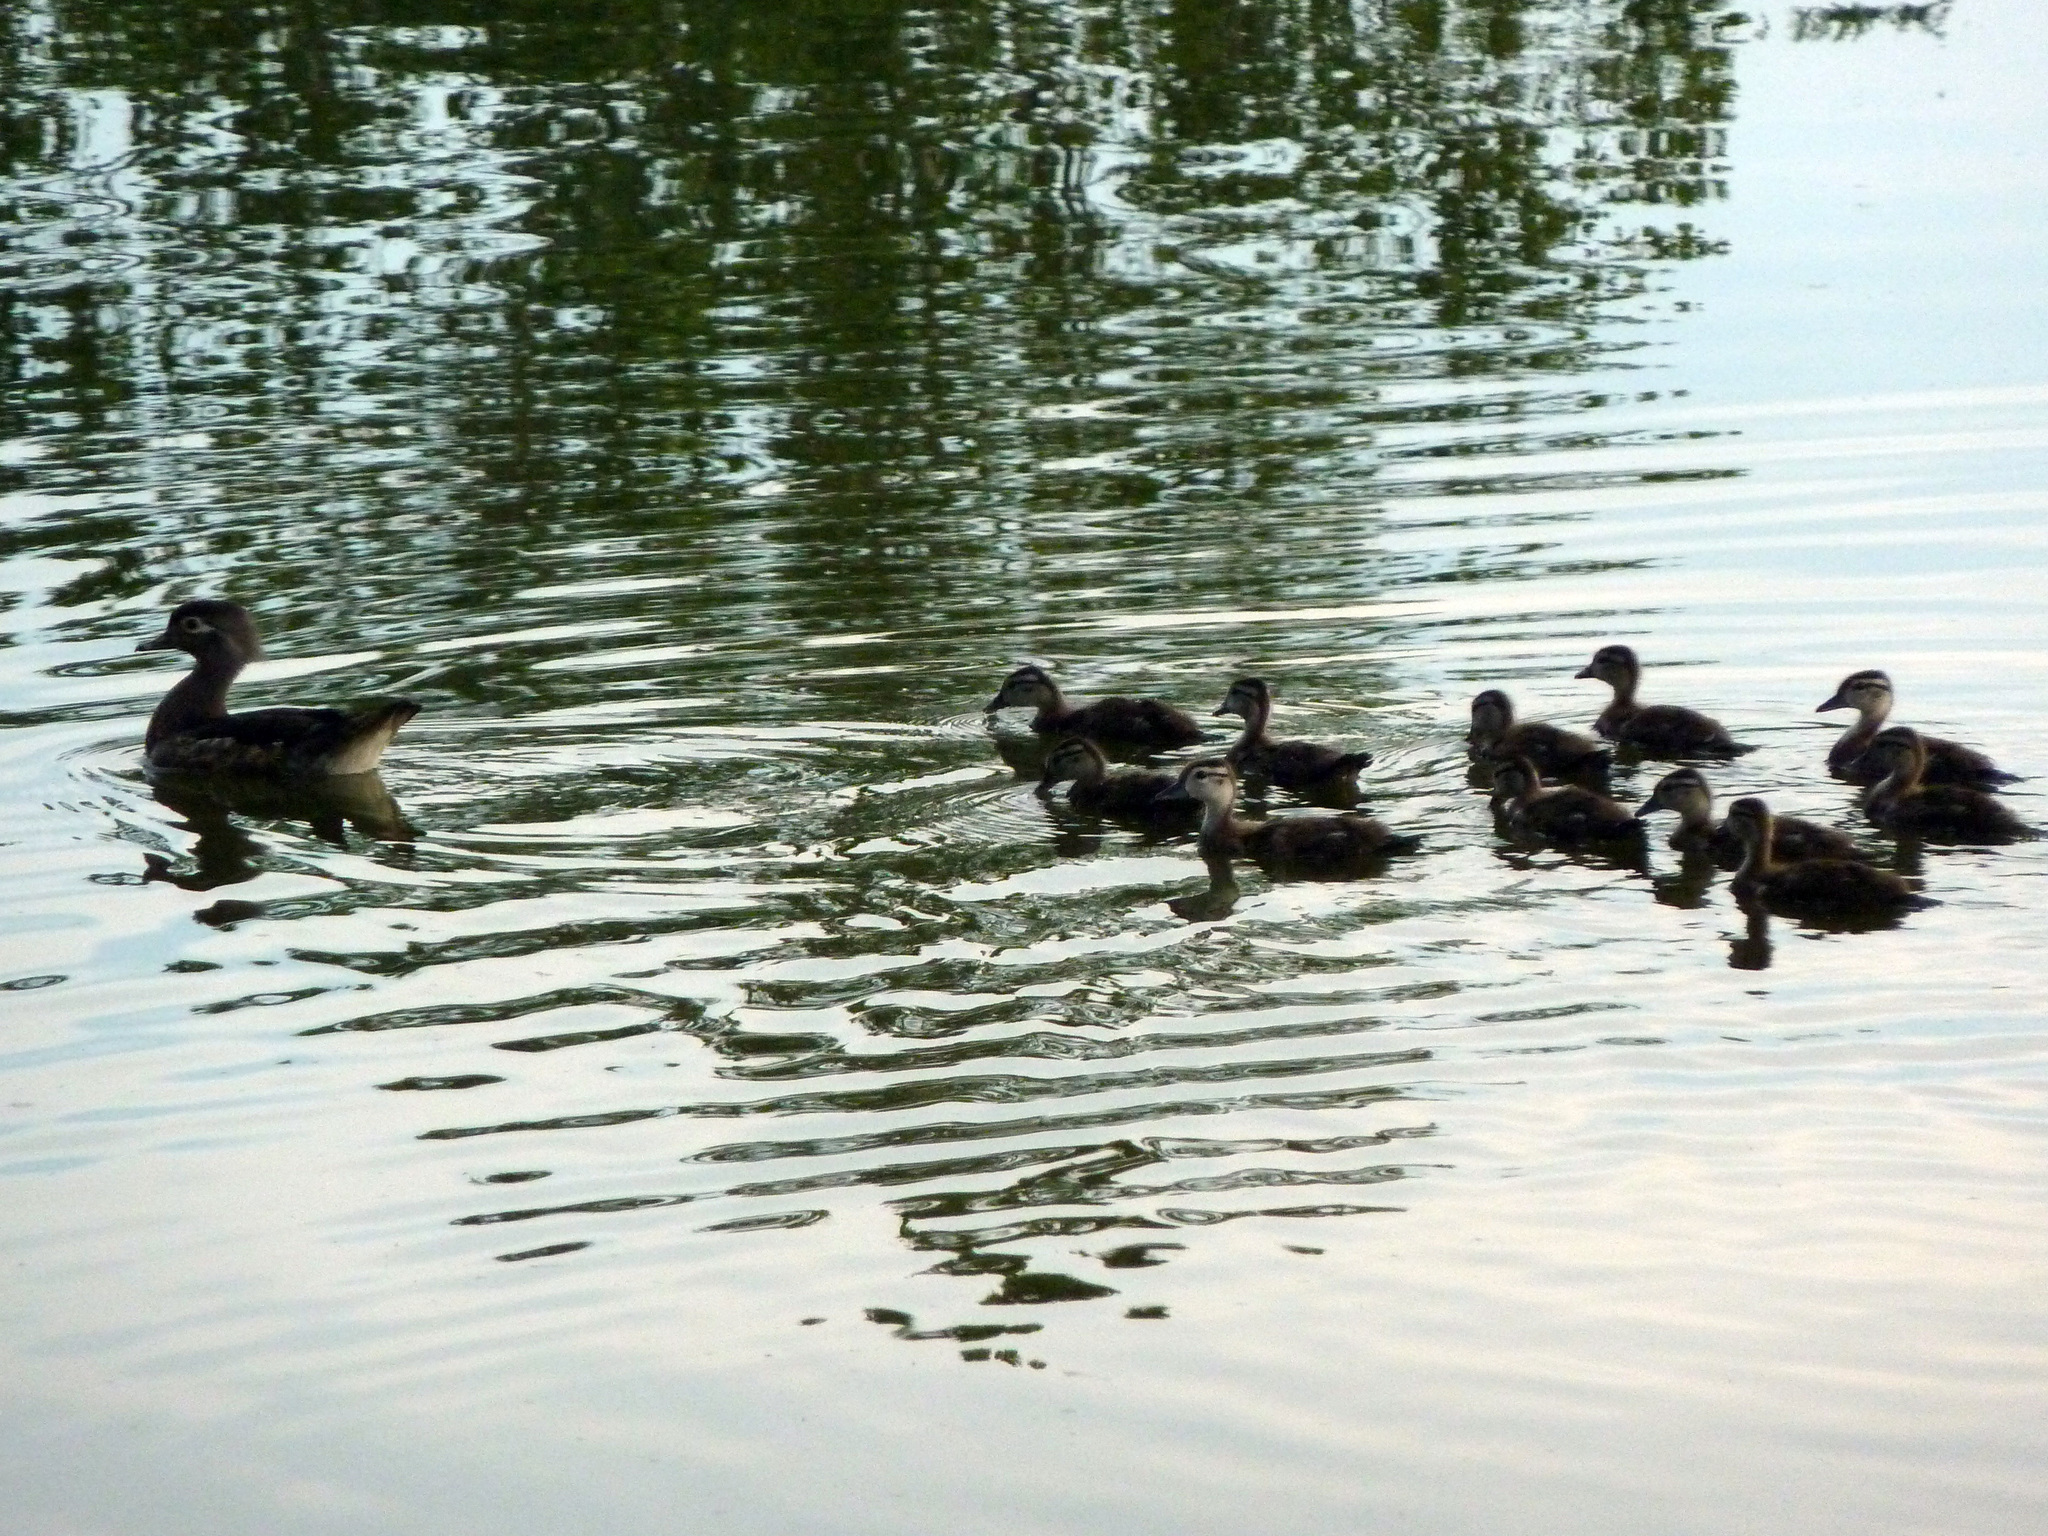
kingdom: Animalia
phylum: Chordata
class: Aves
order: Anseriformes
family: Anatidae
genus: Aix
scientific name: Aix sponsa
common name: Wood duck
